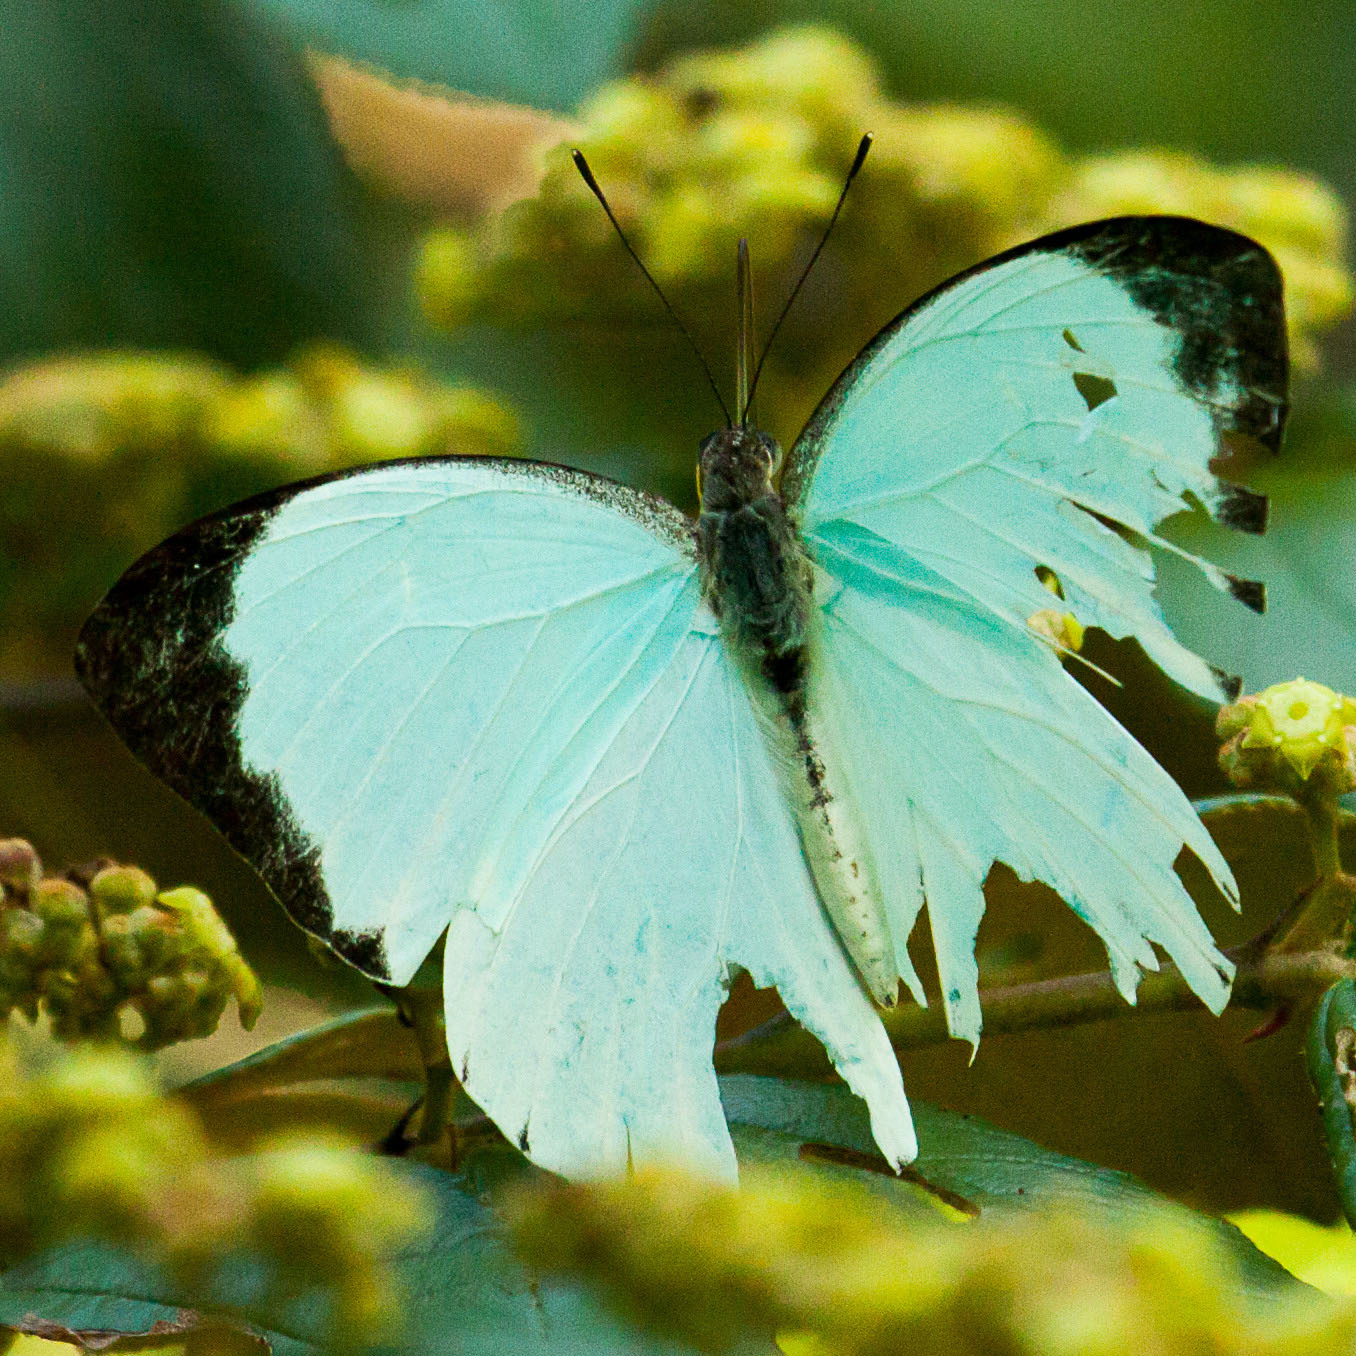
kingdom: Animalia
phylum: Arthropoda
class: Insecta
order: Lepidoptera
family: Pieridae
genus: Nepheronia
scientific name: Nepheronia thalassina
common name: Cambridge vagrant
